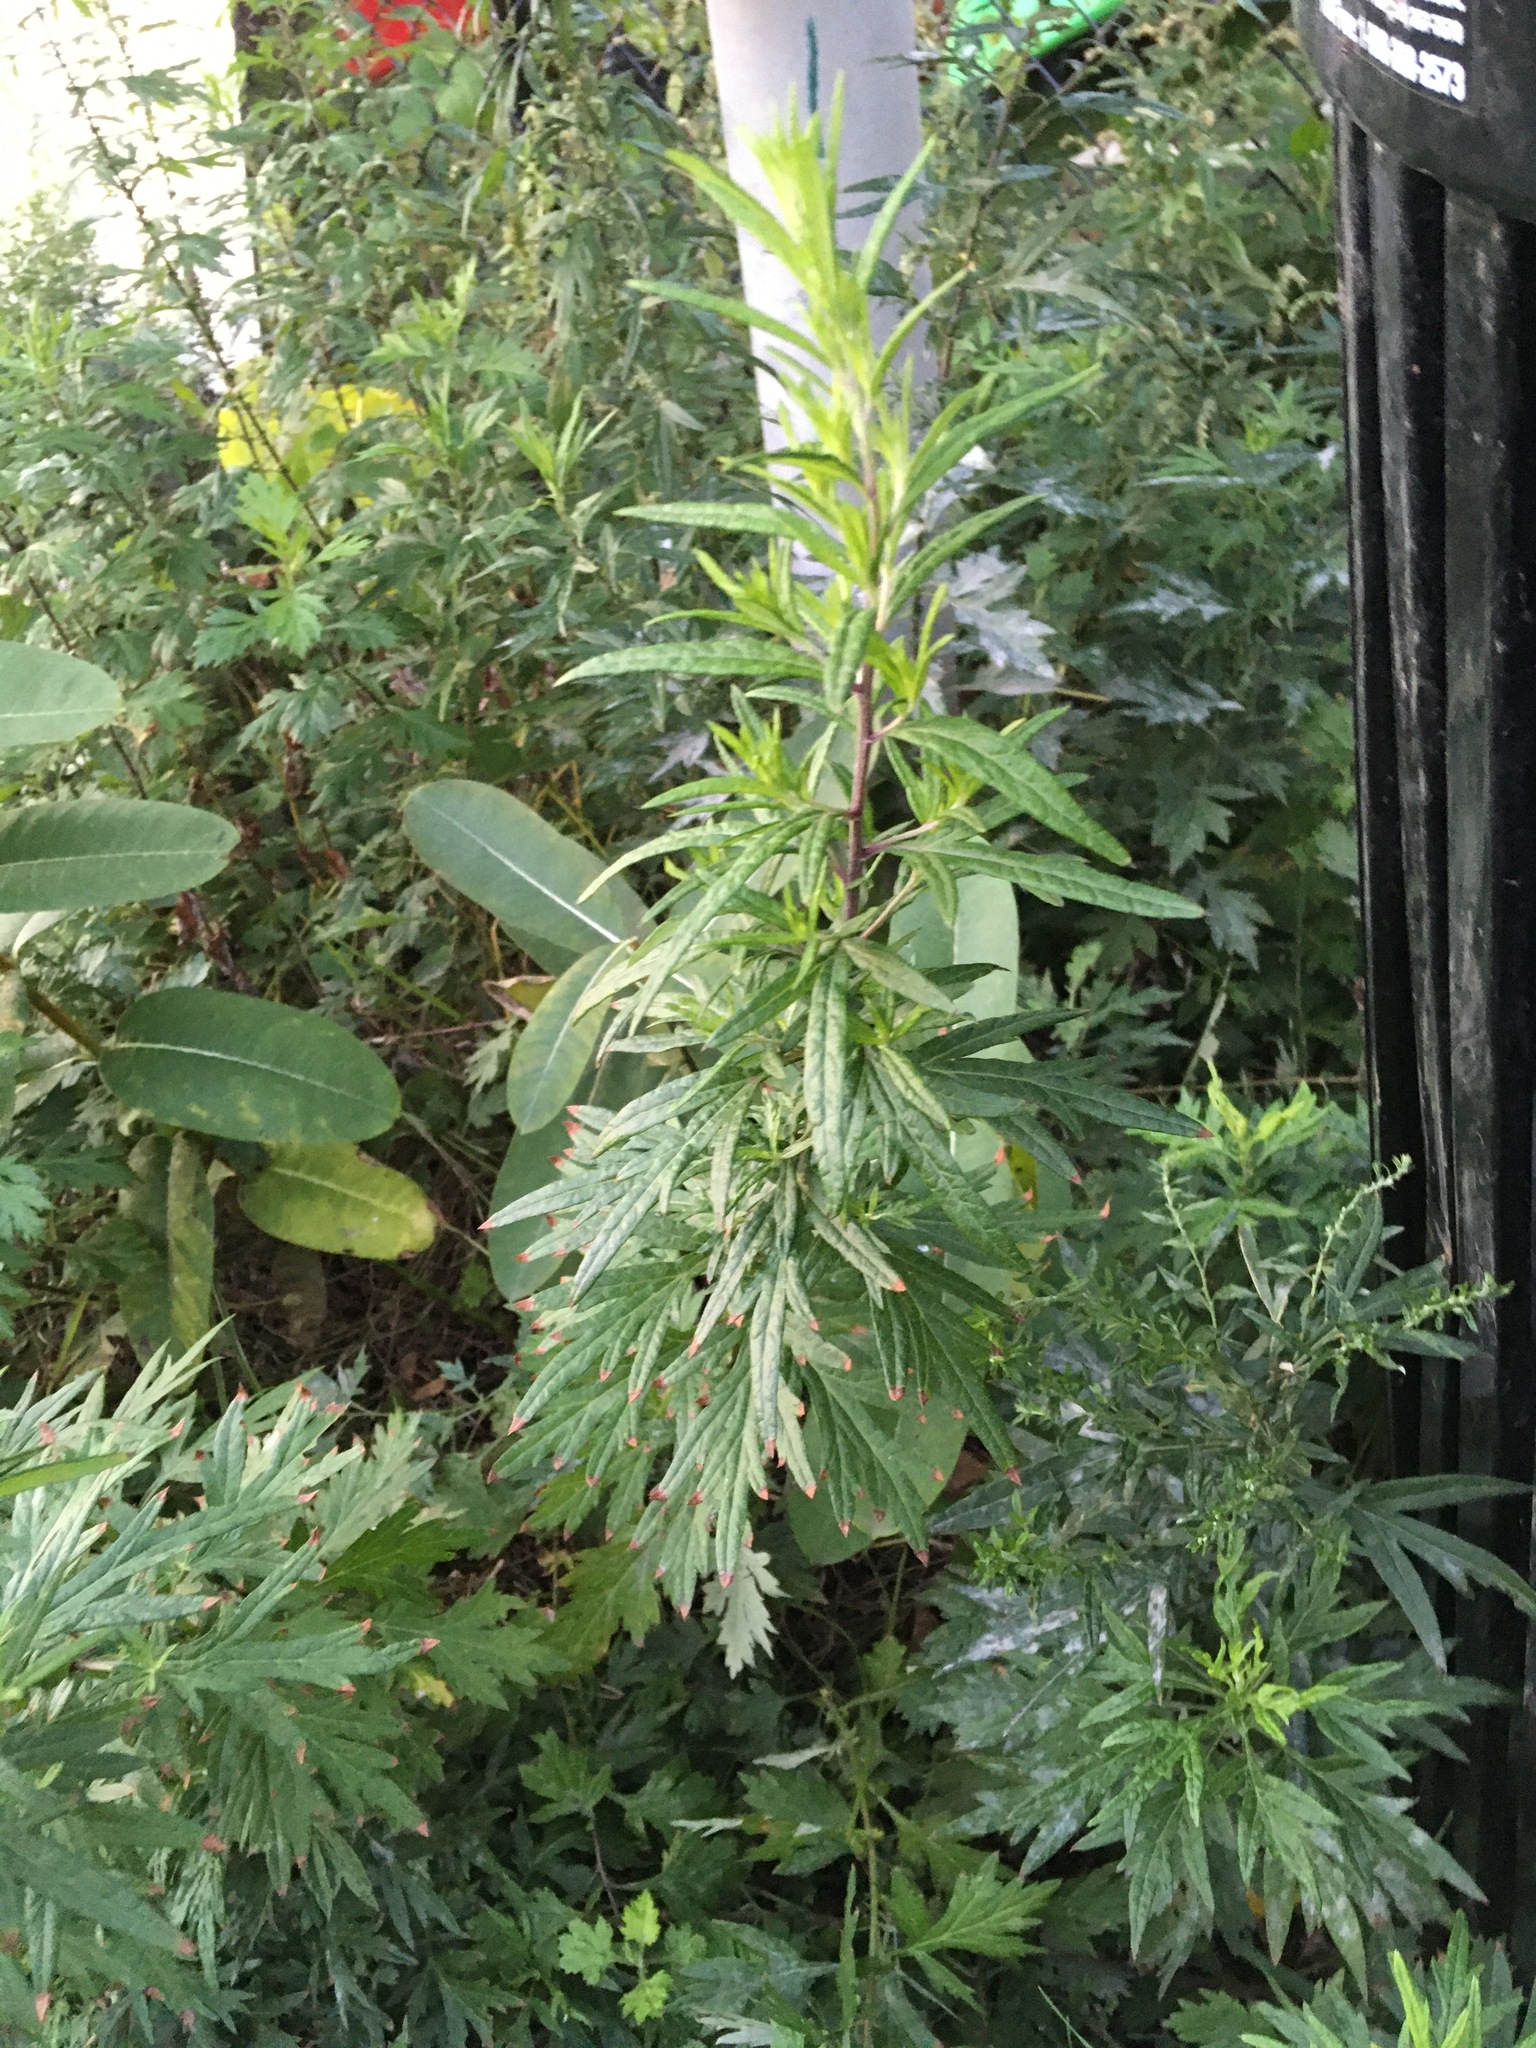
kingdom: Plantae
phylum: Tracheophyta
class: Magnoliopsida
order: Asterales
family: Asteraceae
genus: Artemisia
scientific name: Artemisia vulgaris
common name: Mugwort
